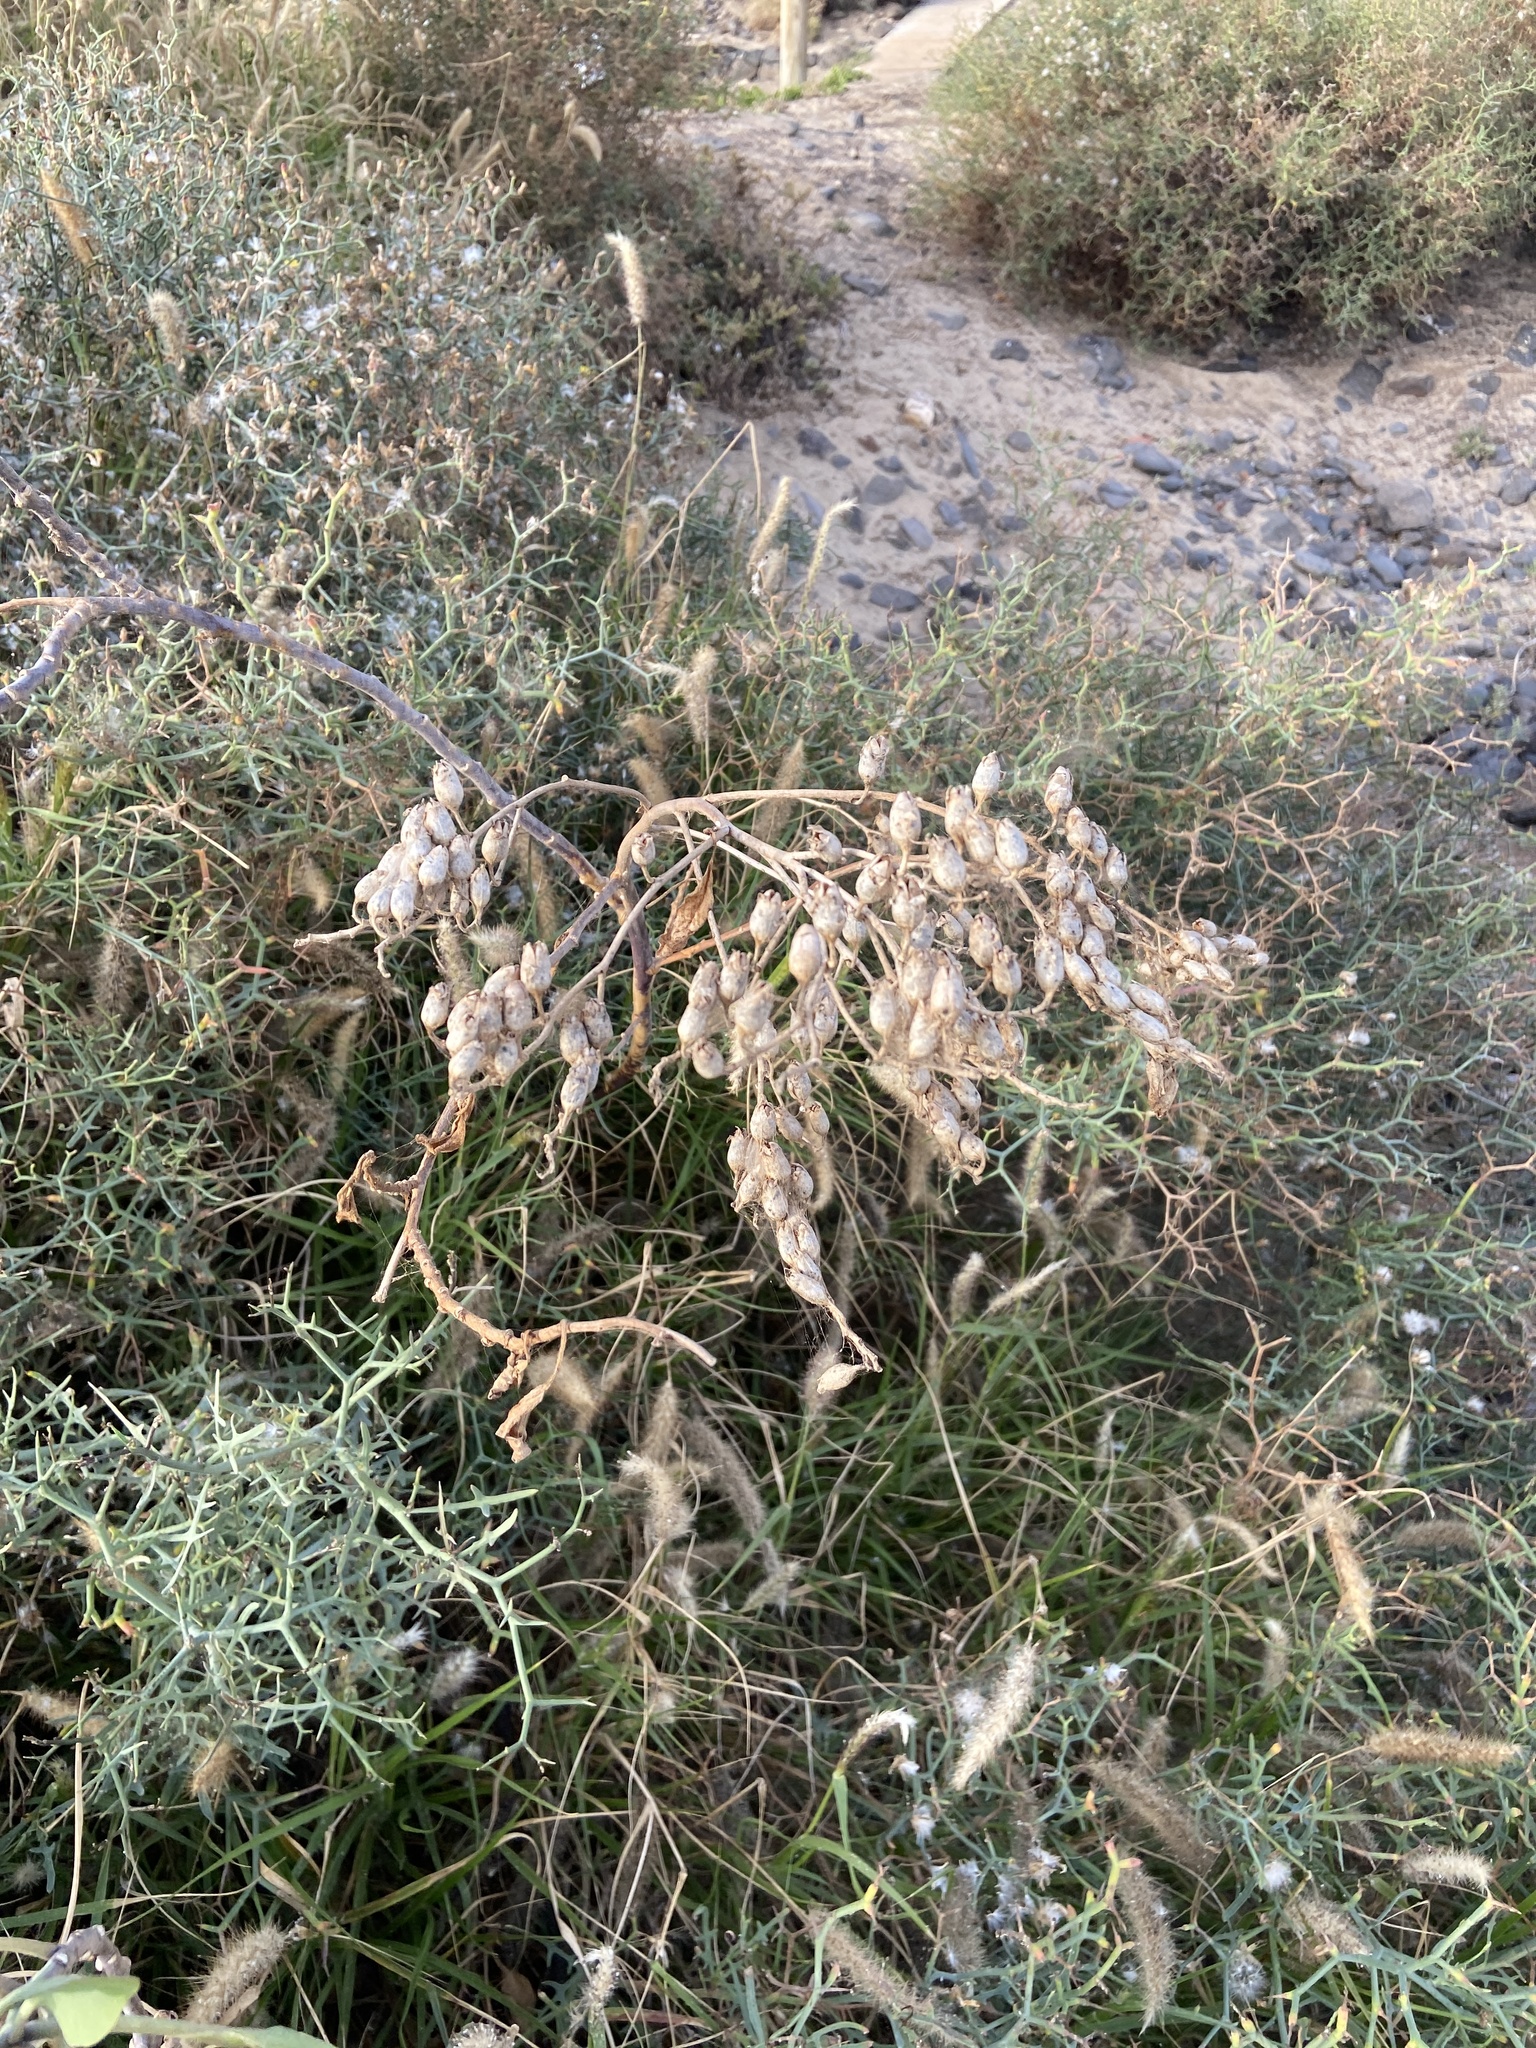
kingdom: Plantae
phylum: Tracheophyta
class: Magnoliopsida
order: Solanales
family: Solanaceae
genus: Nicotiana
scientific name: Nicotiana glauca
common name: Tree tobacco
